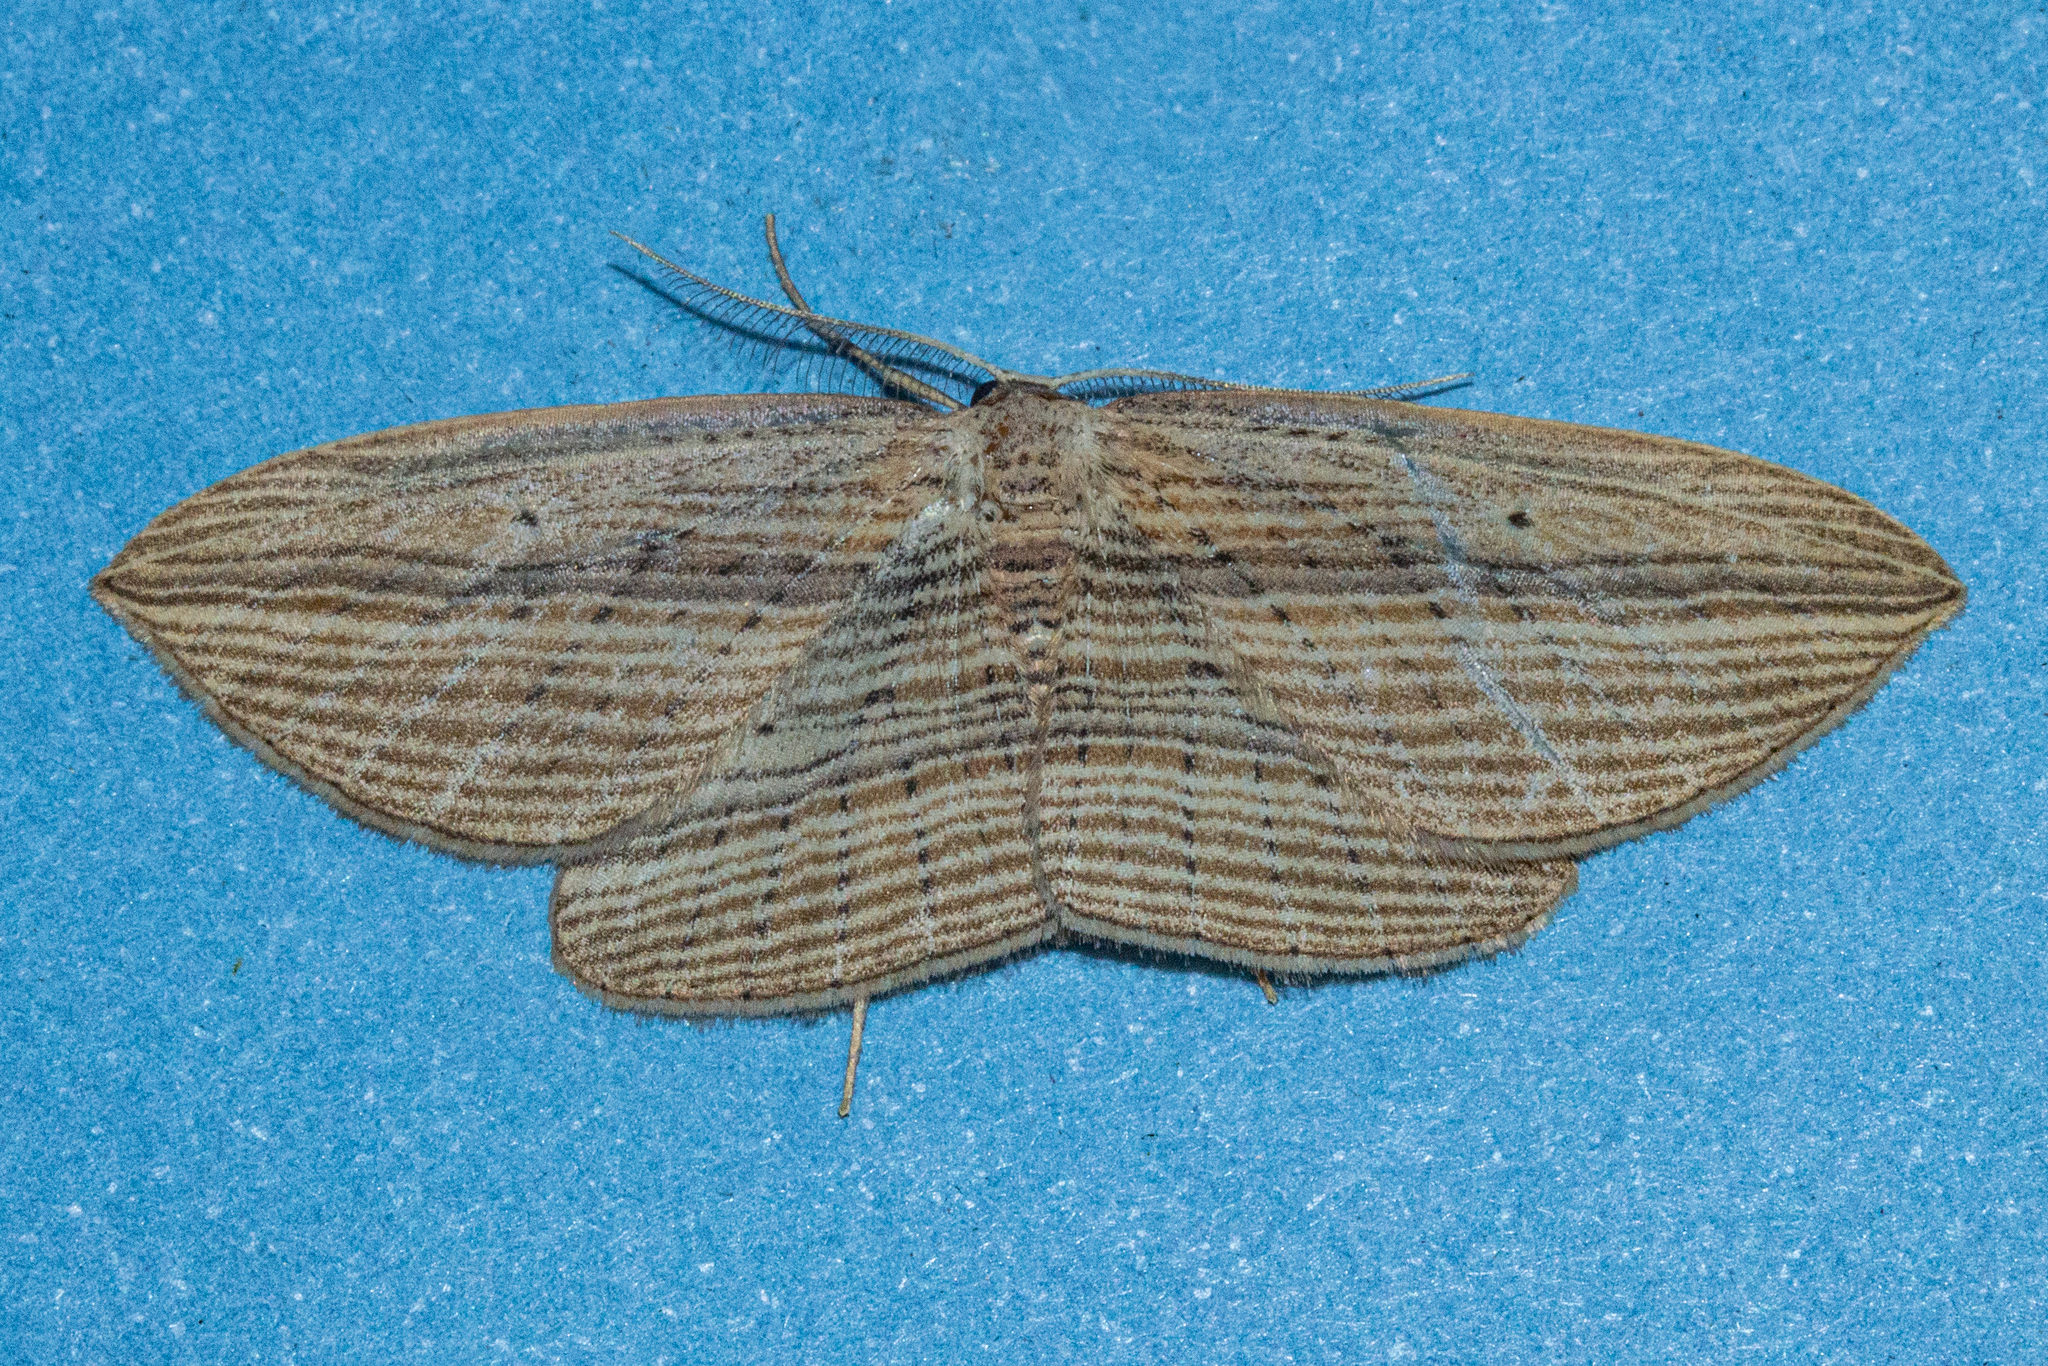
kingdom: Animalia
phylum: Arthropoda
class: Insecta
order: Lepidoptera
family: Geometridae
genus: Epiphryne
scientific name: Epiphryne verriculata
